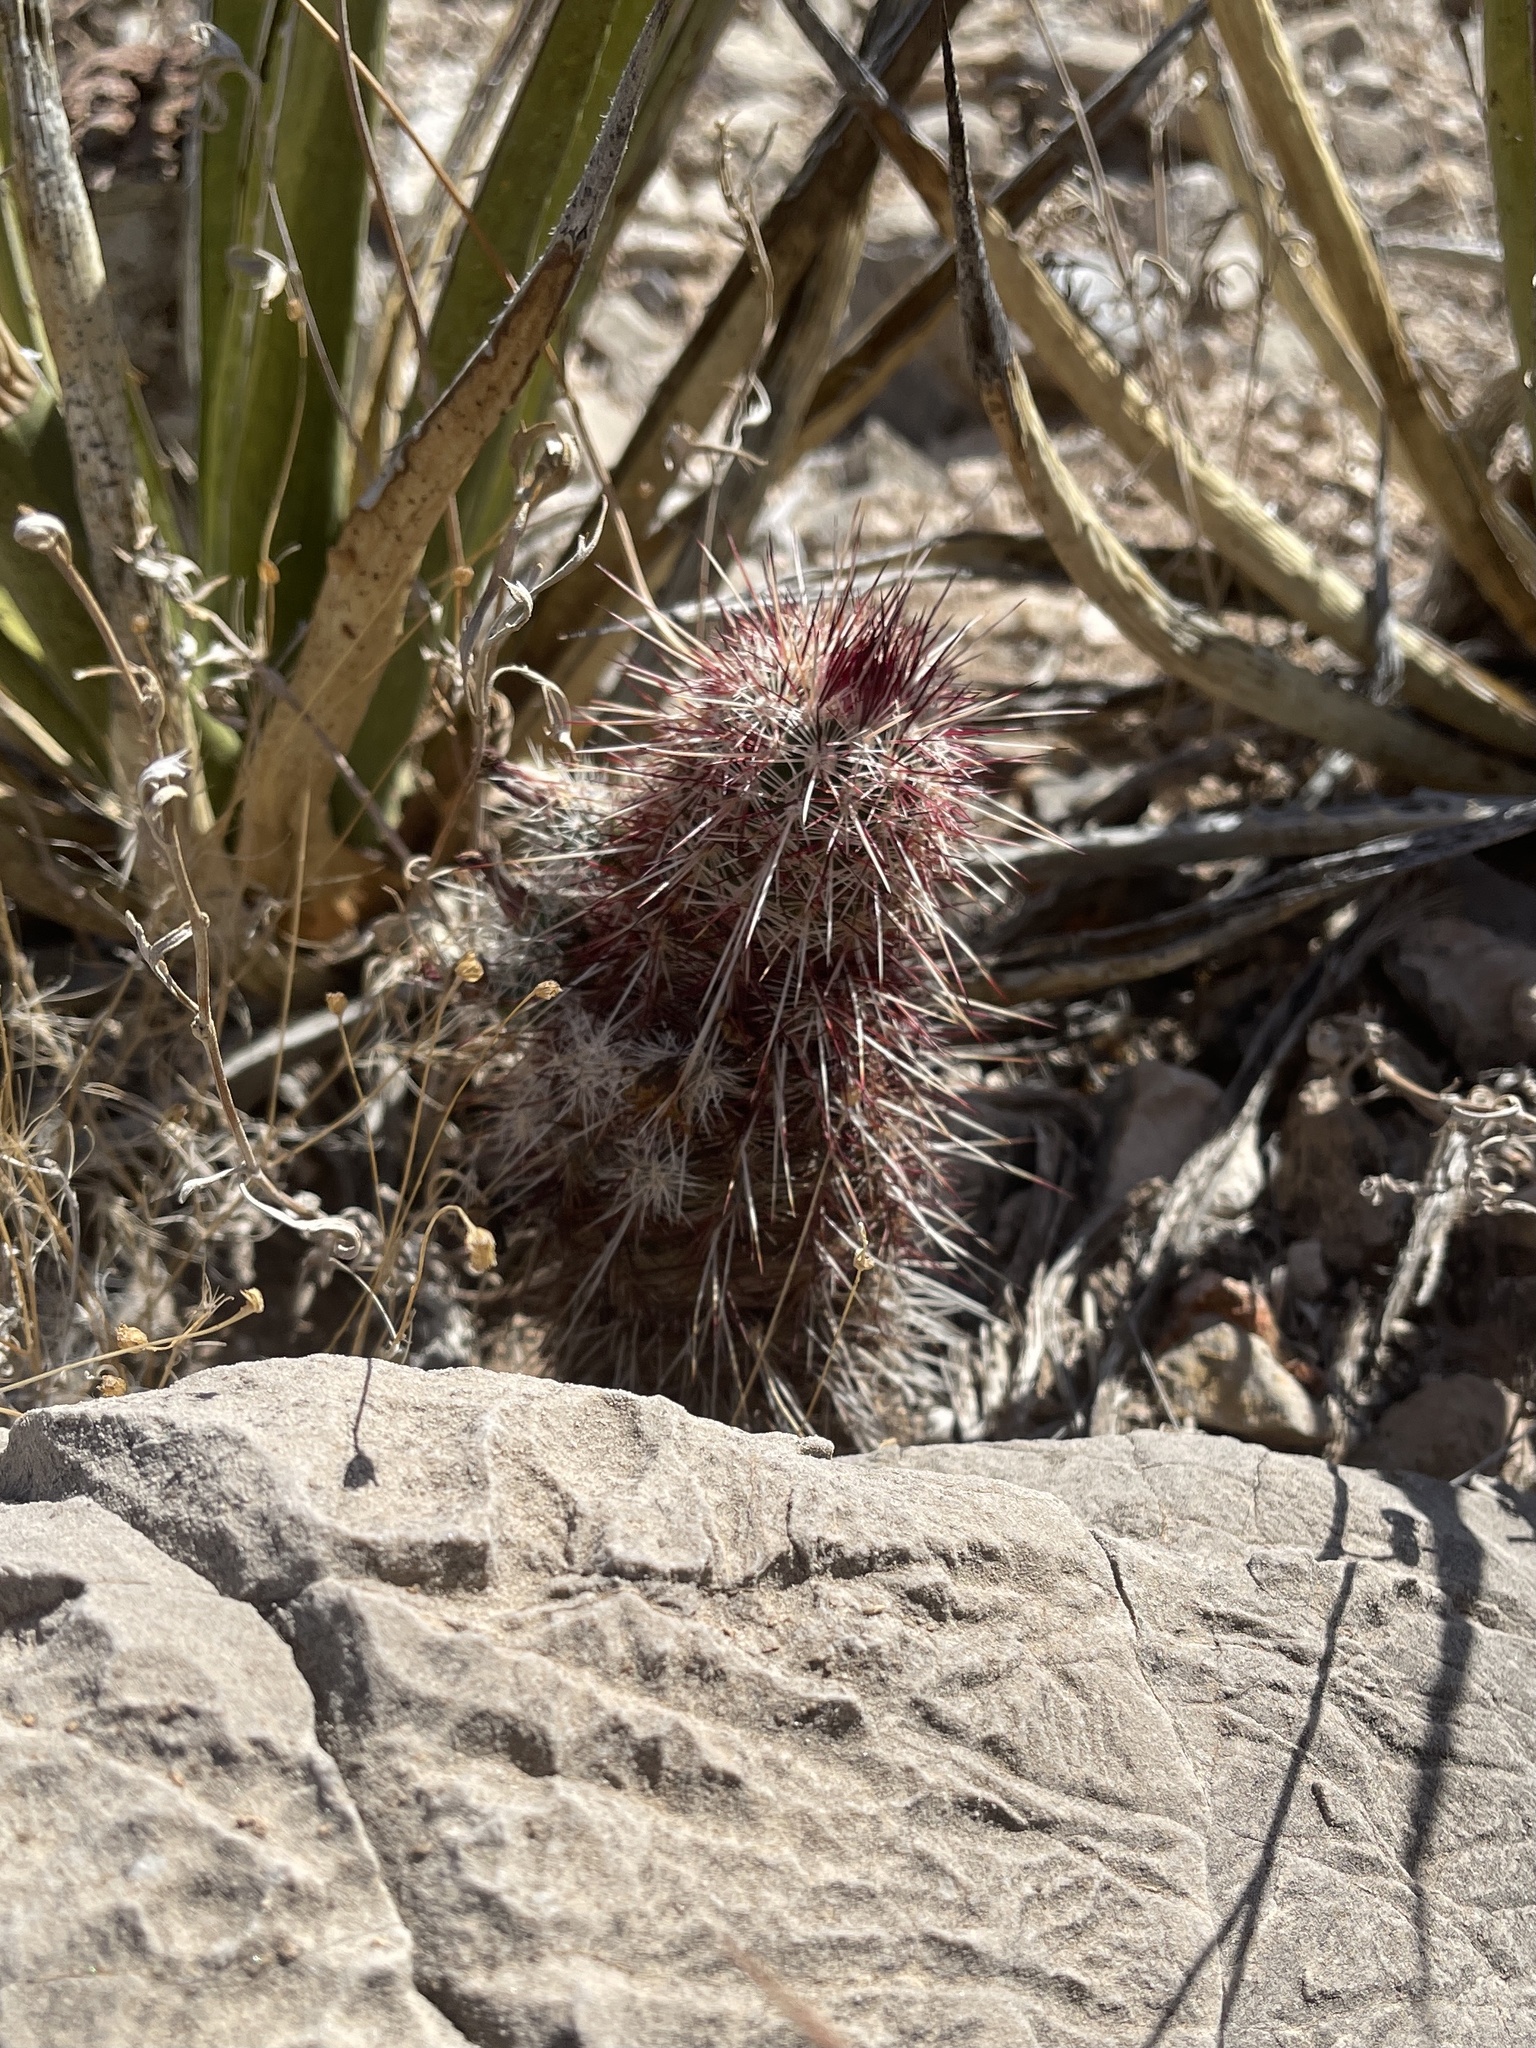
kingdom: Plantae
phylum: Tracheophyta
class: Magnoliopsida
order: Caryophyllales
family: Cactaceae
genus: Echinocereus
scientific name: Echinocereus viridiflorus
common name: Nylon hedgehog cactus
